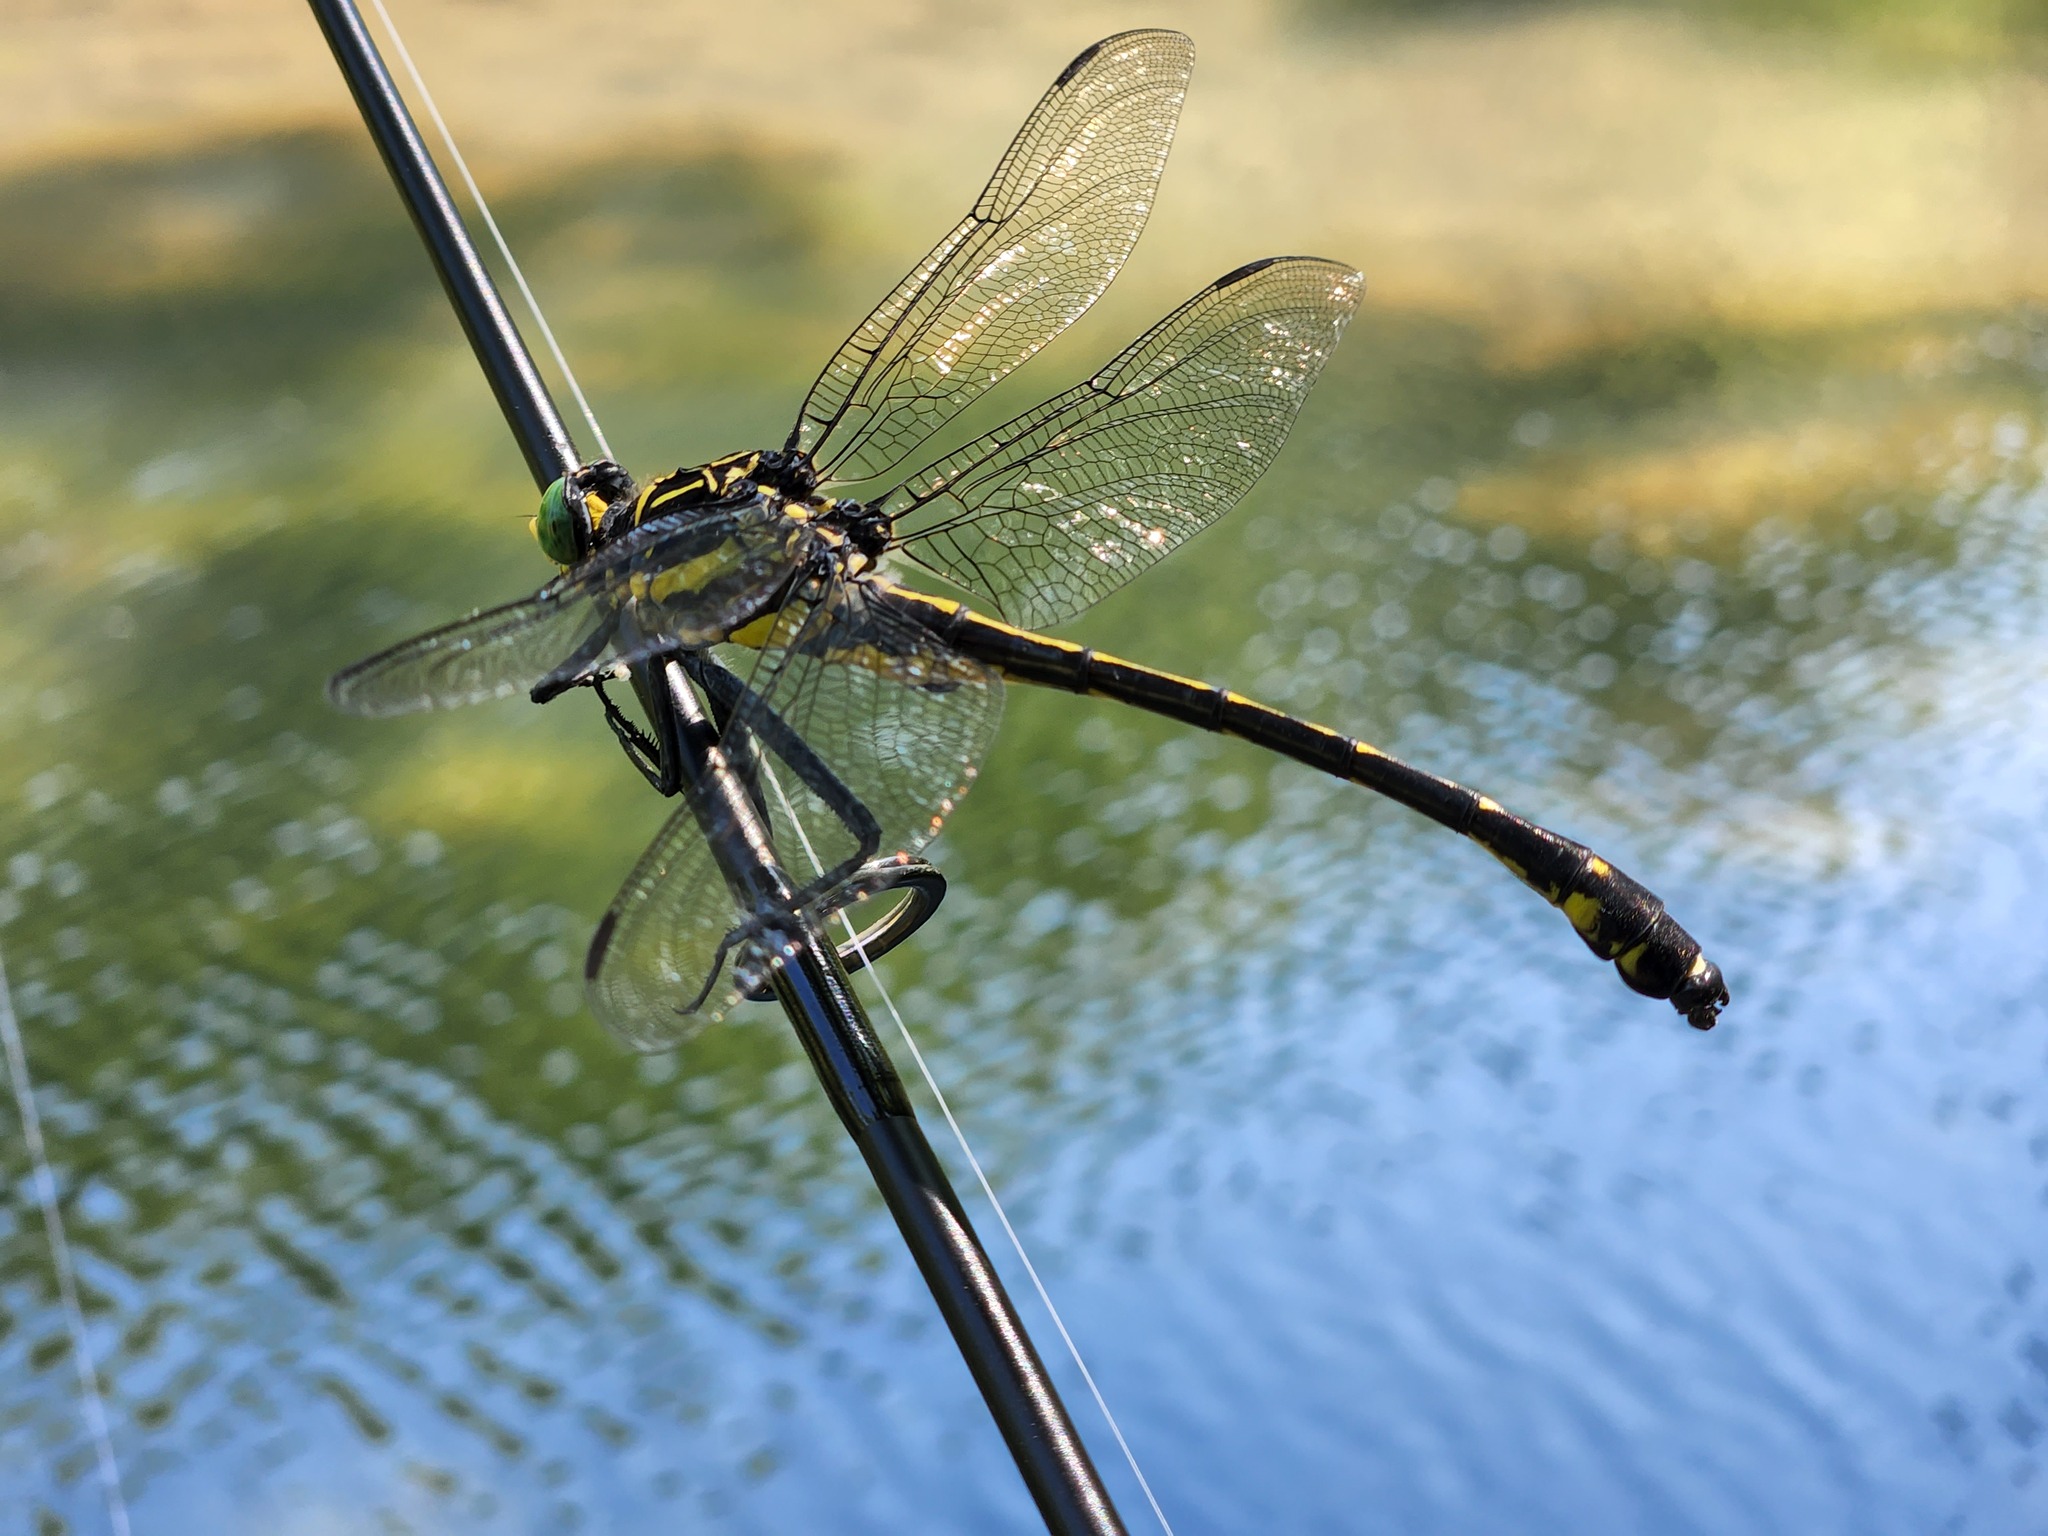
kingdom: Animalia
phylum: Arthropoda
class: Insecta
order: Odonata
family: Gomphidae
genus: Hagenius
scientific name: Hagenius brevistylus
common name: Dragonhunter
